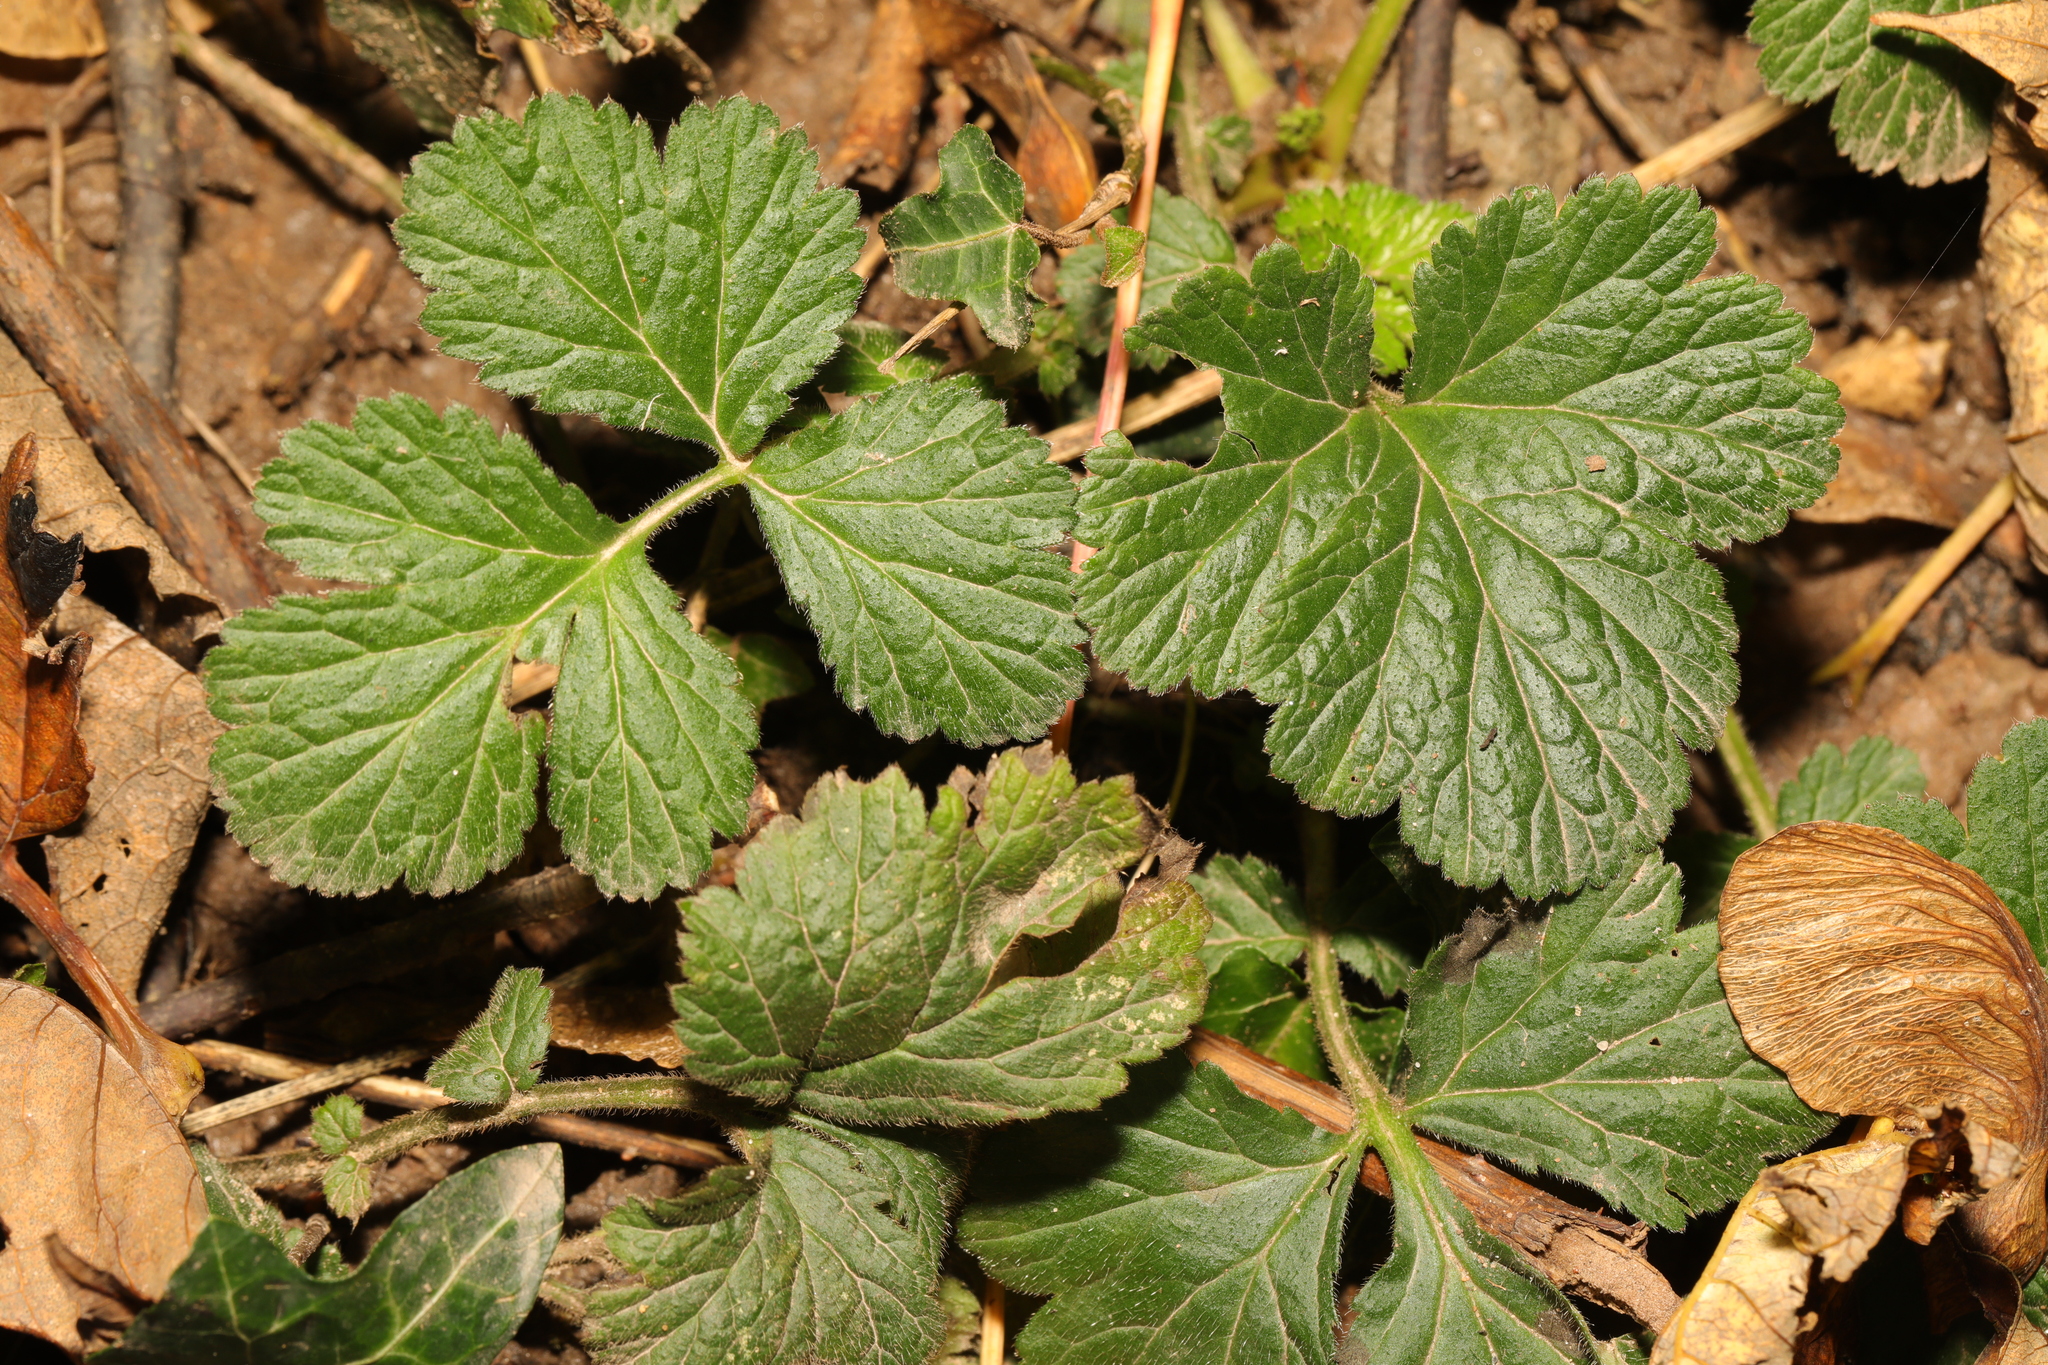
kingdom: Plantae
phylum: Tracheophyta
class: Magnoliopsida
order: Rosales
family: Rosaceae
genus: Geum
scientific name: Geum urbanum
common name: Wood avens
